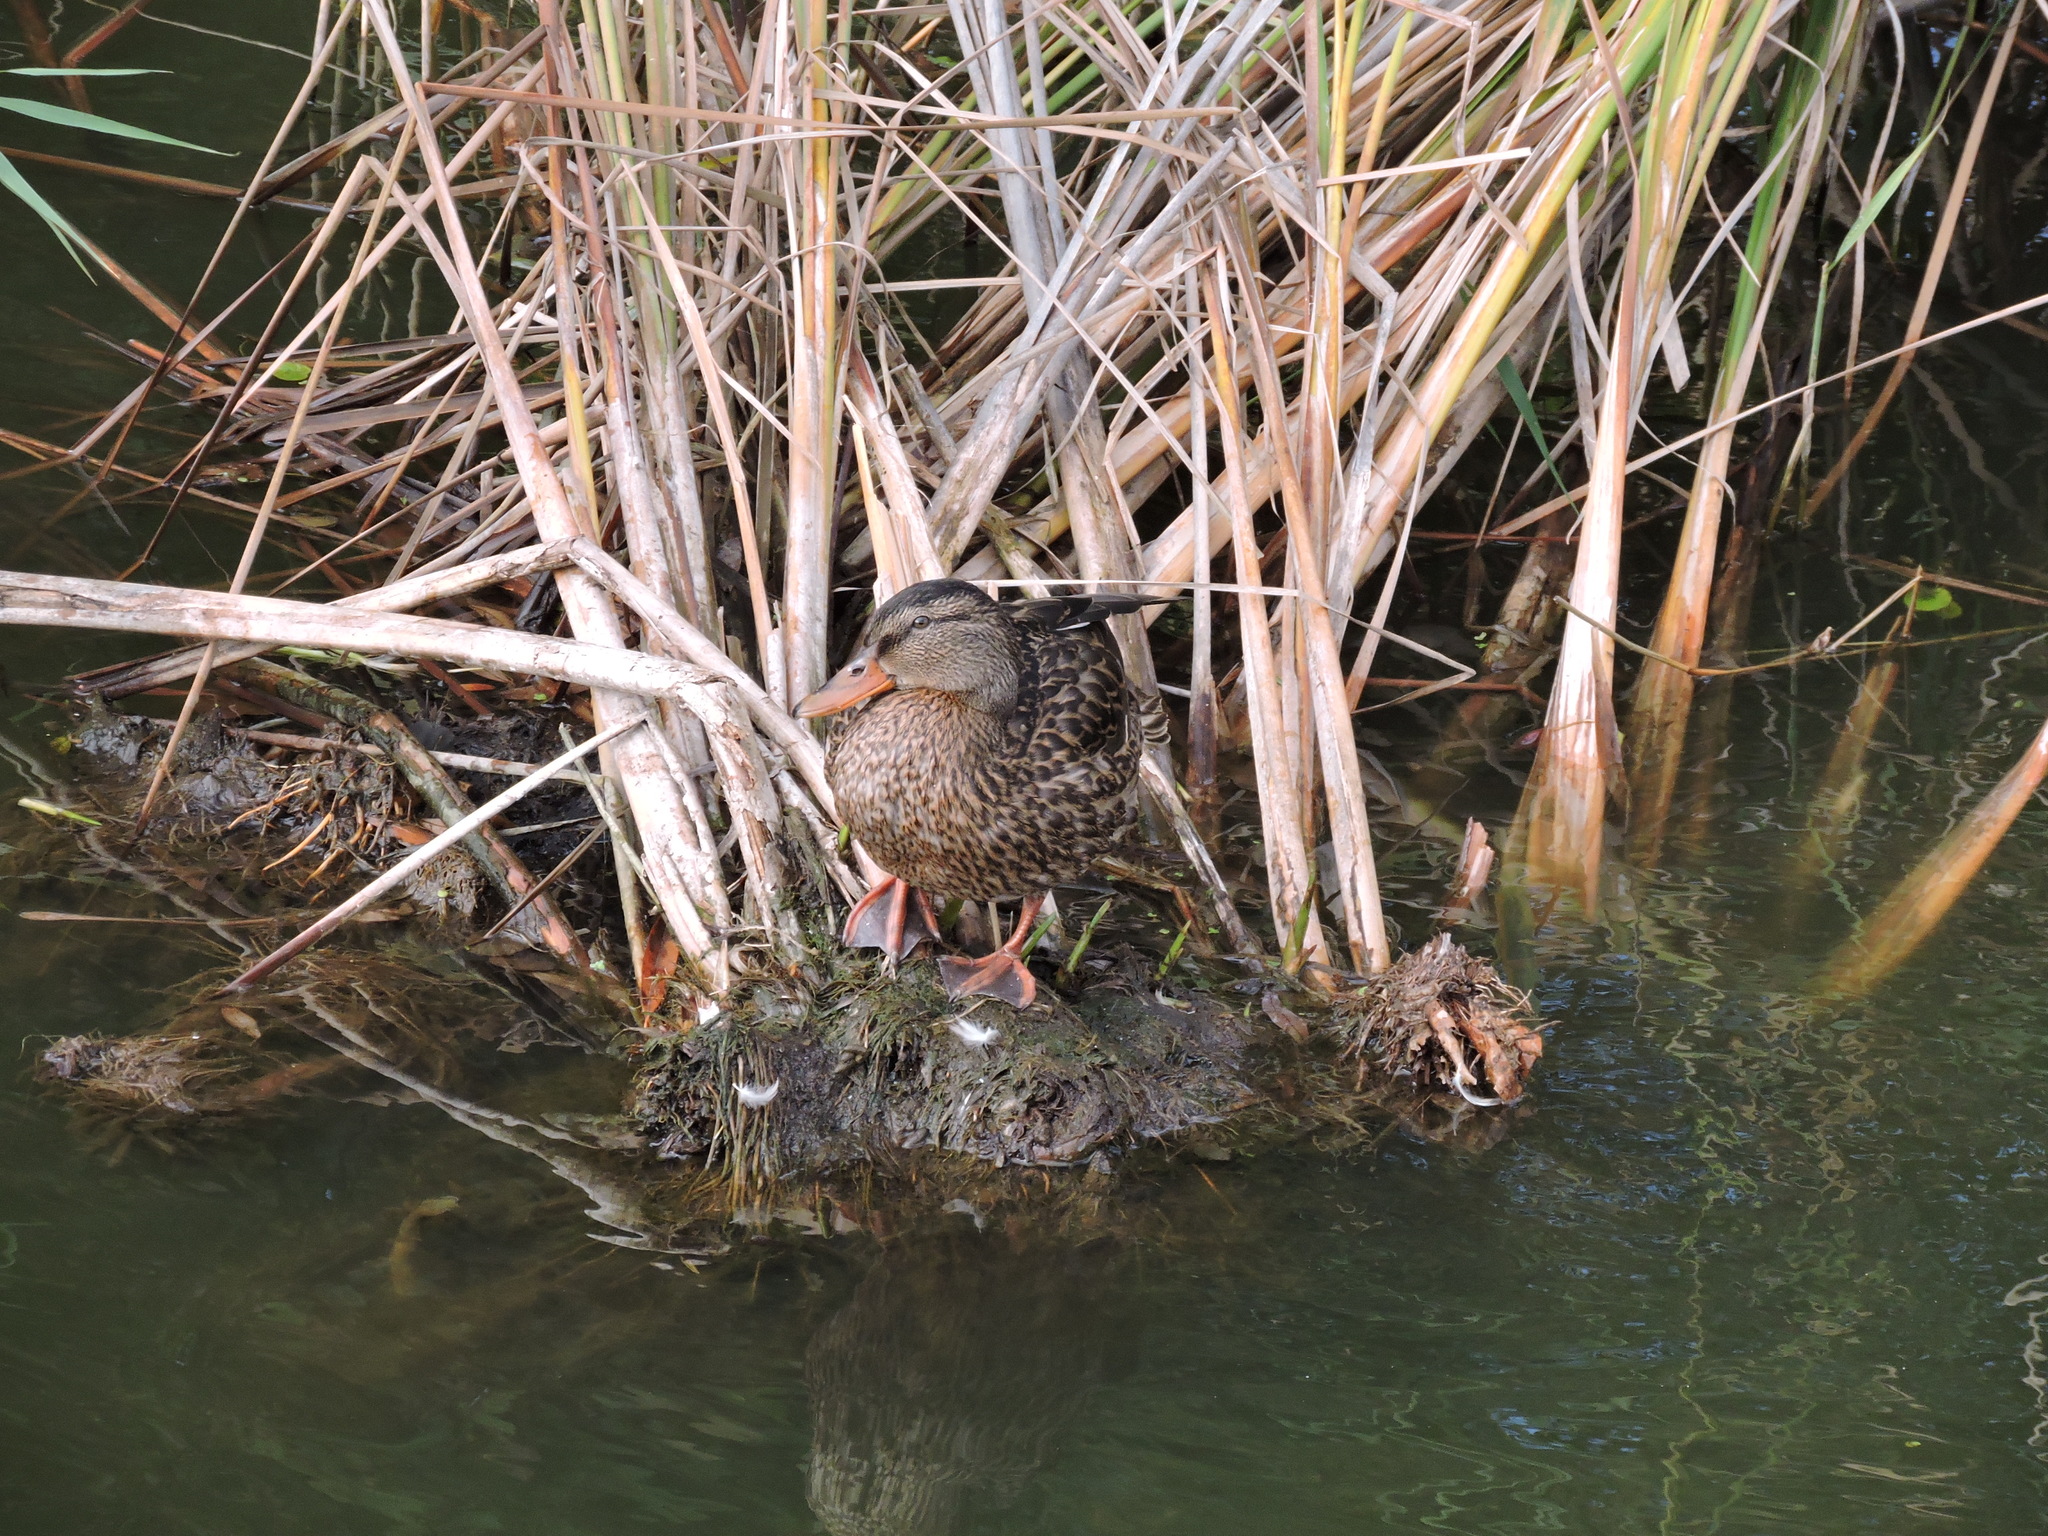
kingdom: Animalia
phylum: Chordata
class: Aves
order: Anseriformes
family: Anatidae
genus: Anas
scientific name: Anas platyrhynchos
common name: Mallard
